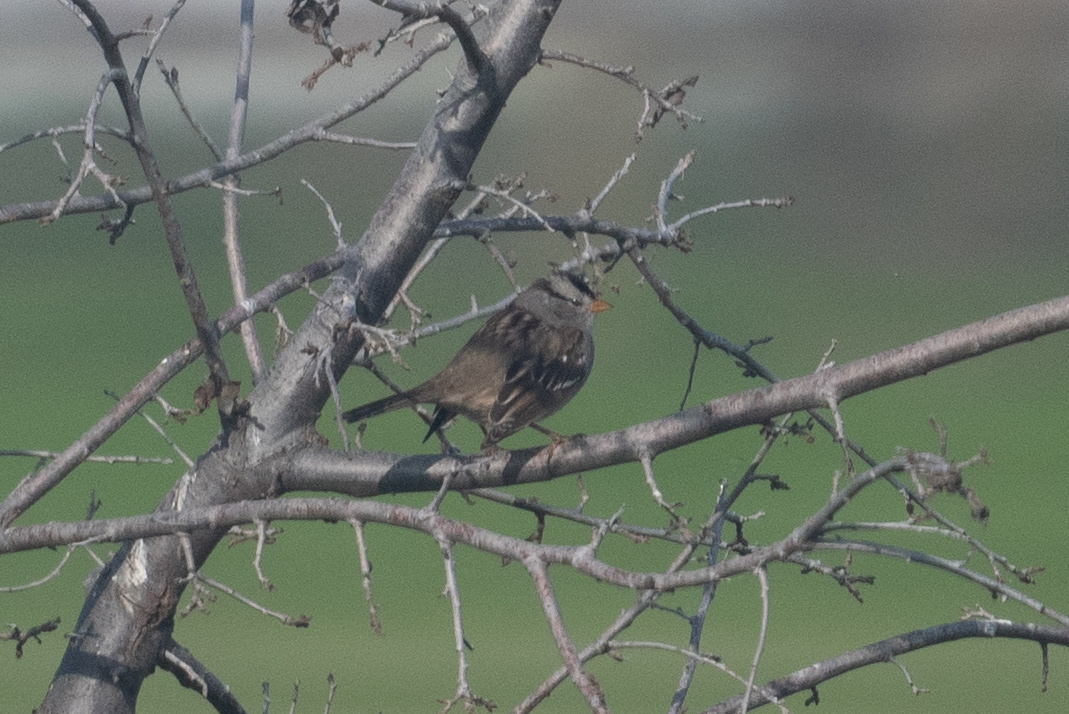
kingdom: Animalia
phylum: Chordata
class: Aves
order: Passeriformes
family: Passerellidae
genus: Zonotrichia
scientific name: Zonotrichia leucophrys
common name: White-crowned sparrow
